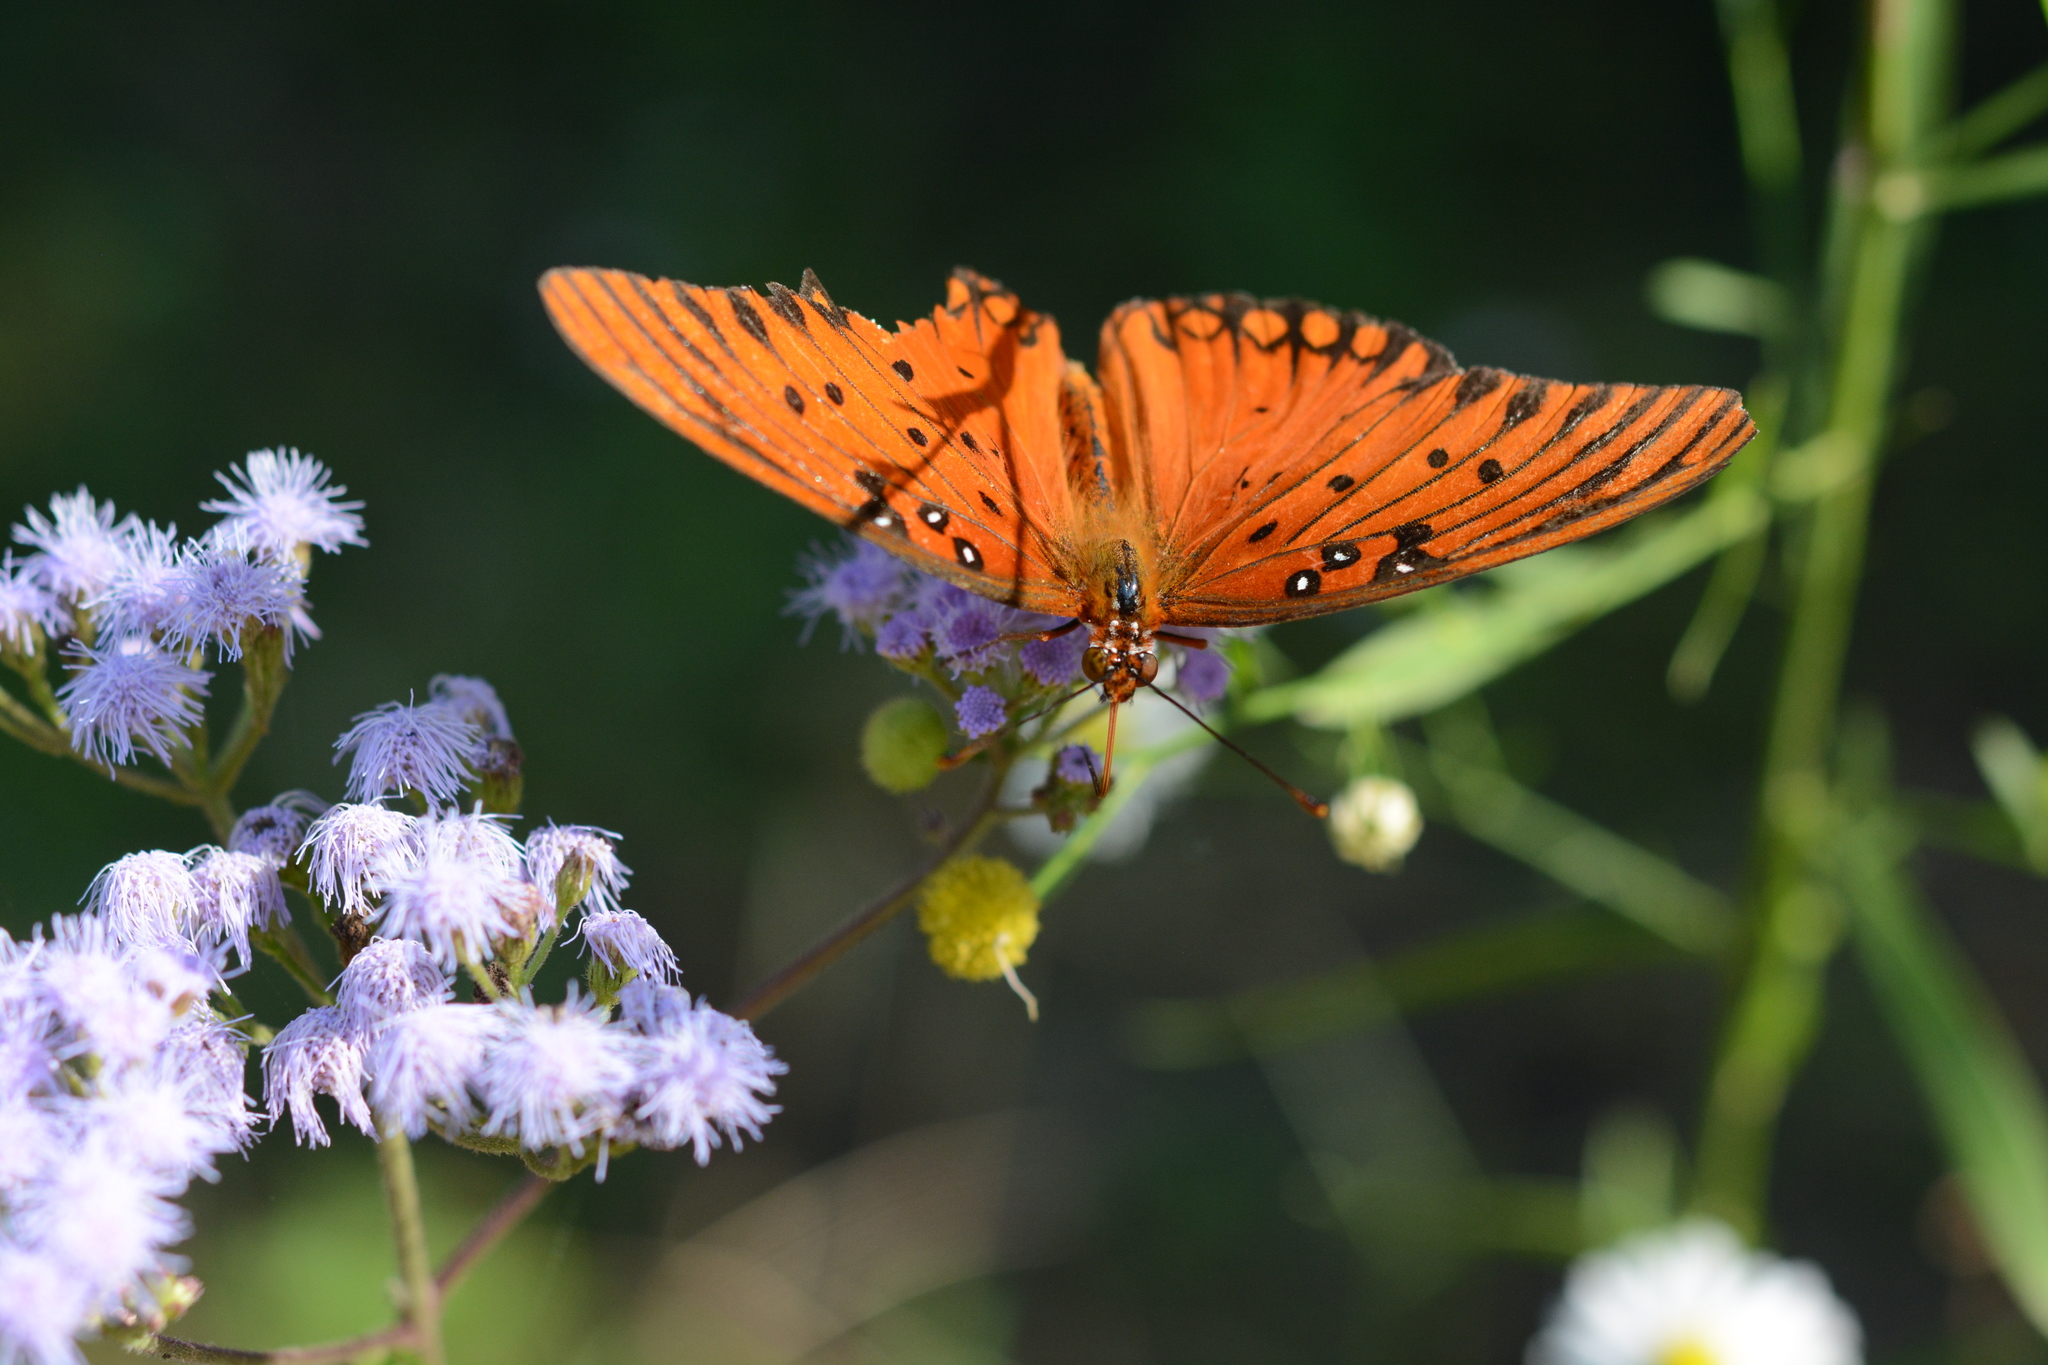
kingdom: Animalia
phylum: Arthropoda
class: Insecta
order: Lepidoptera
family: Nymphalidae
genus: Dione
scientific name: Dione vanillae
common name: Gulf fritillary
